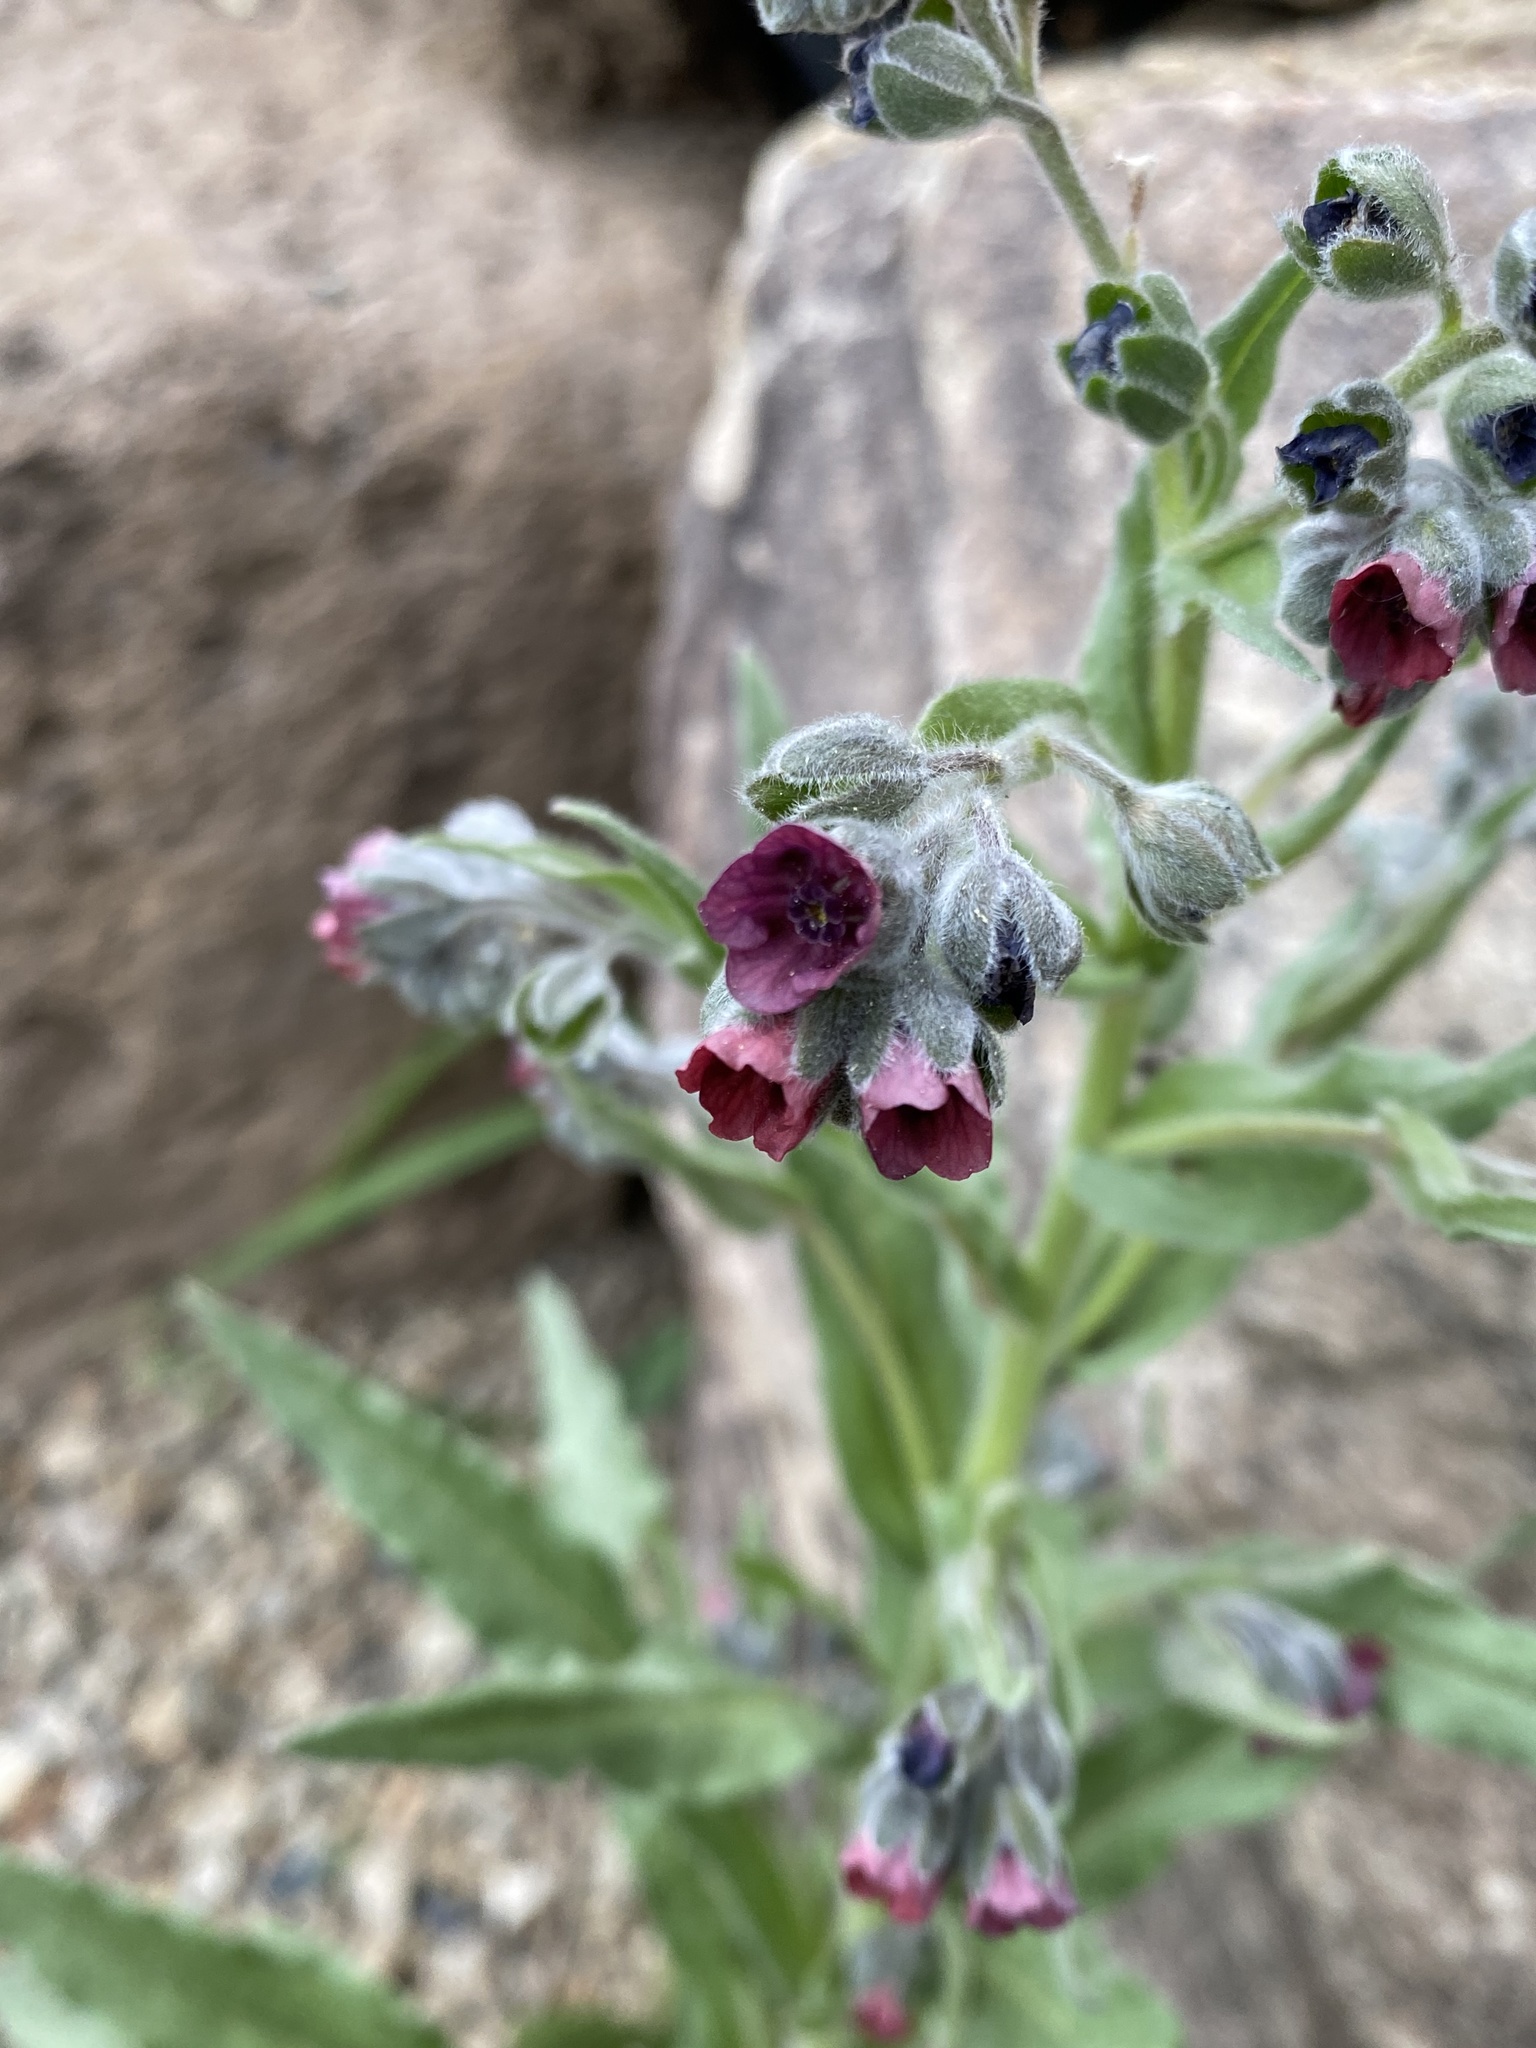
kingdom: Plantae
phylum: Tracheophyta
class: Magnoliopsida
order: Boraginales
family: Boraginaceae
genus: Cynoglossum
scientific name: Cynoglossum officinale
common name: Hound's-tongue
